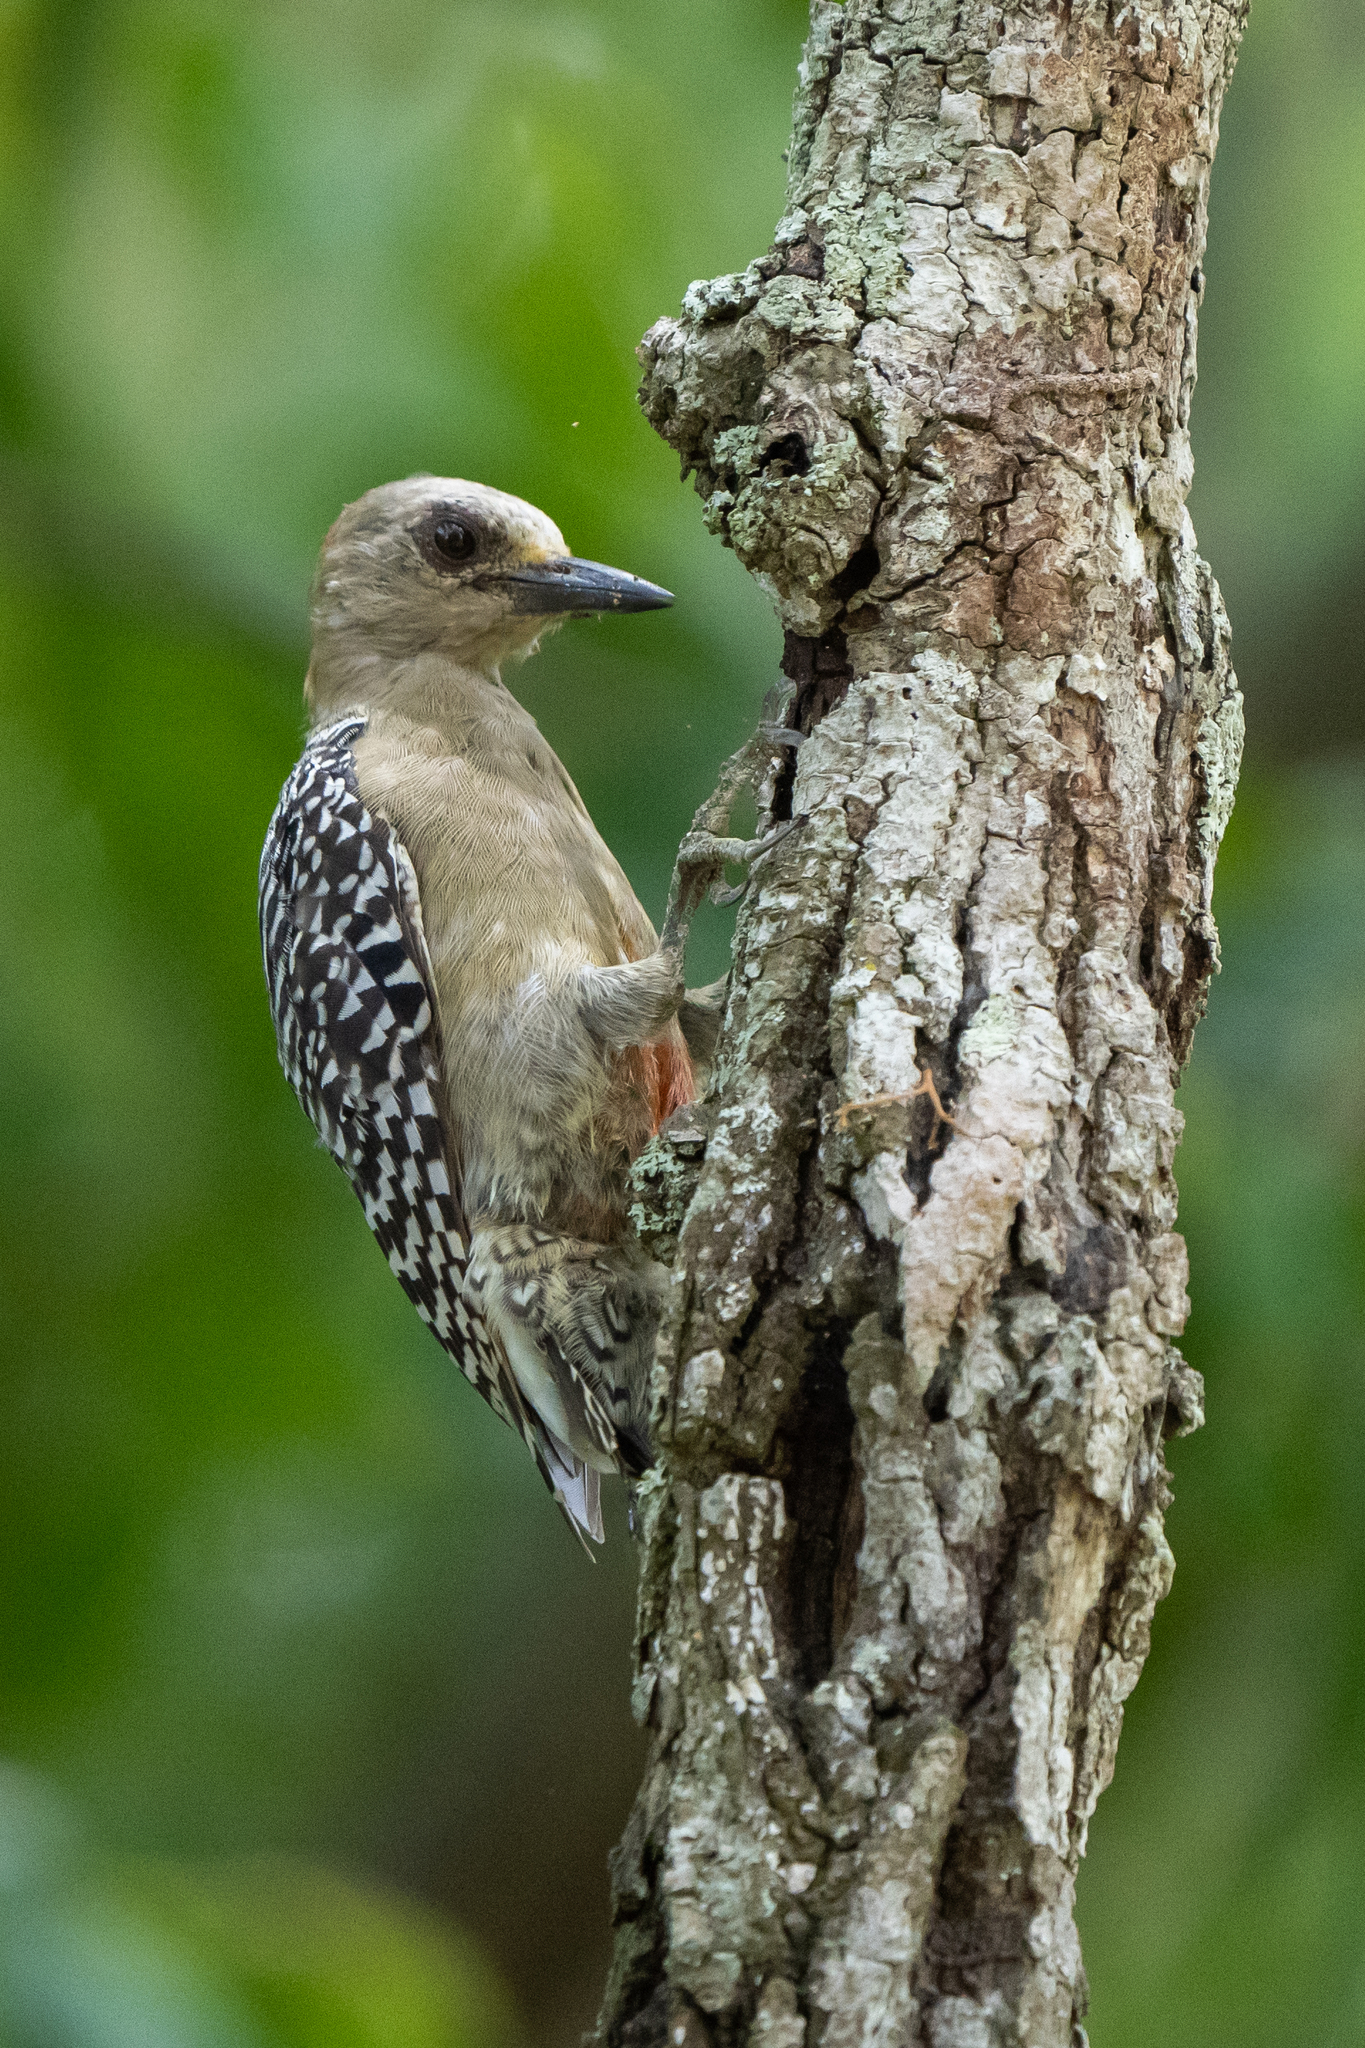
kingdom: Animalia
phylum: Chordata
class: Aves
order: Piciformes
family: Picidae
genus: Melanerpes
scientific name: Melanerpes rubricapillus
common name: Red-crowned woodpecker
